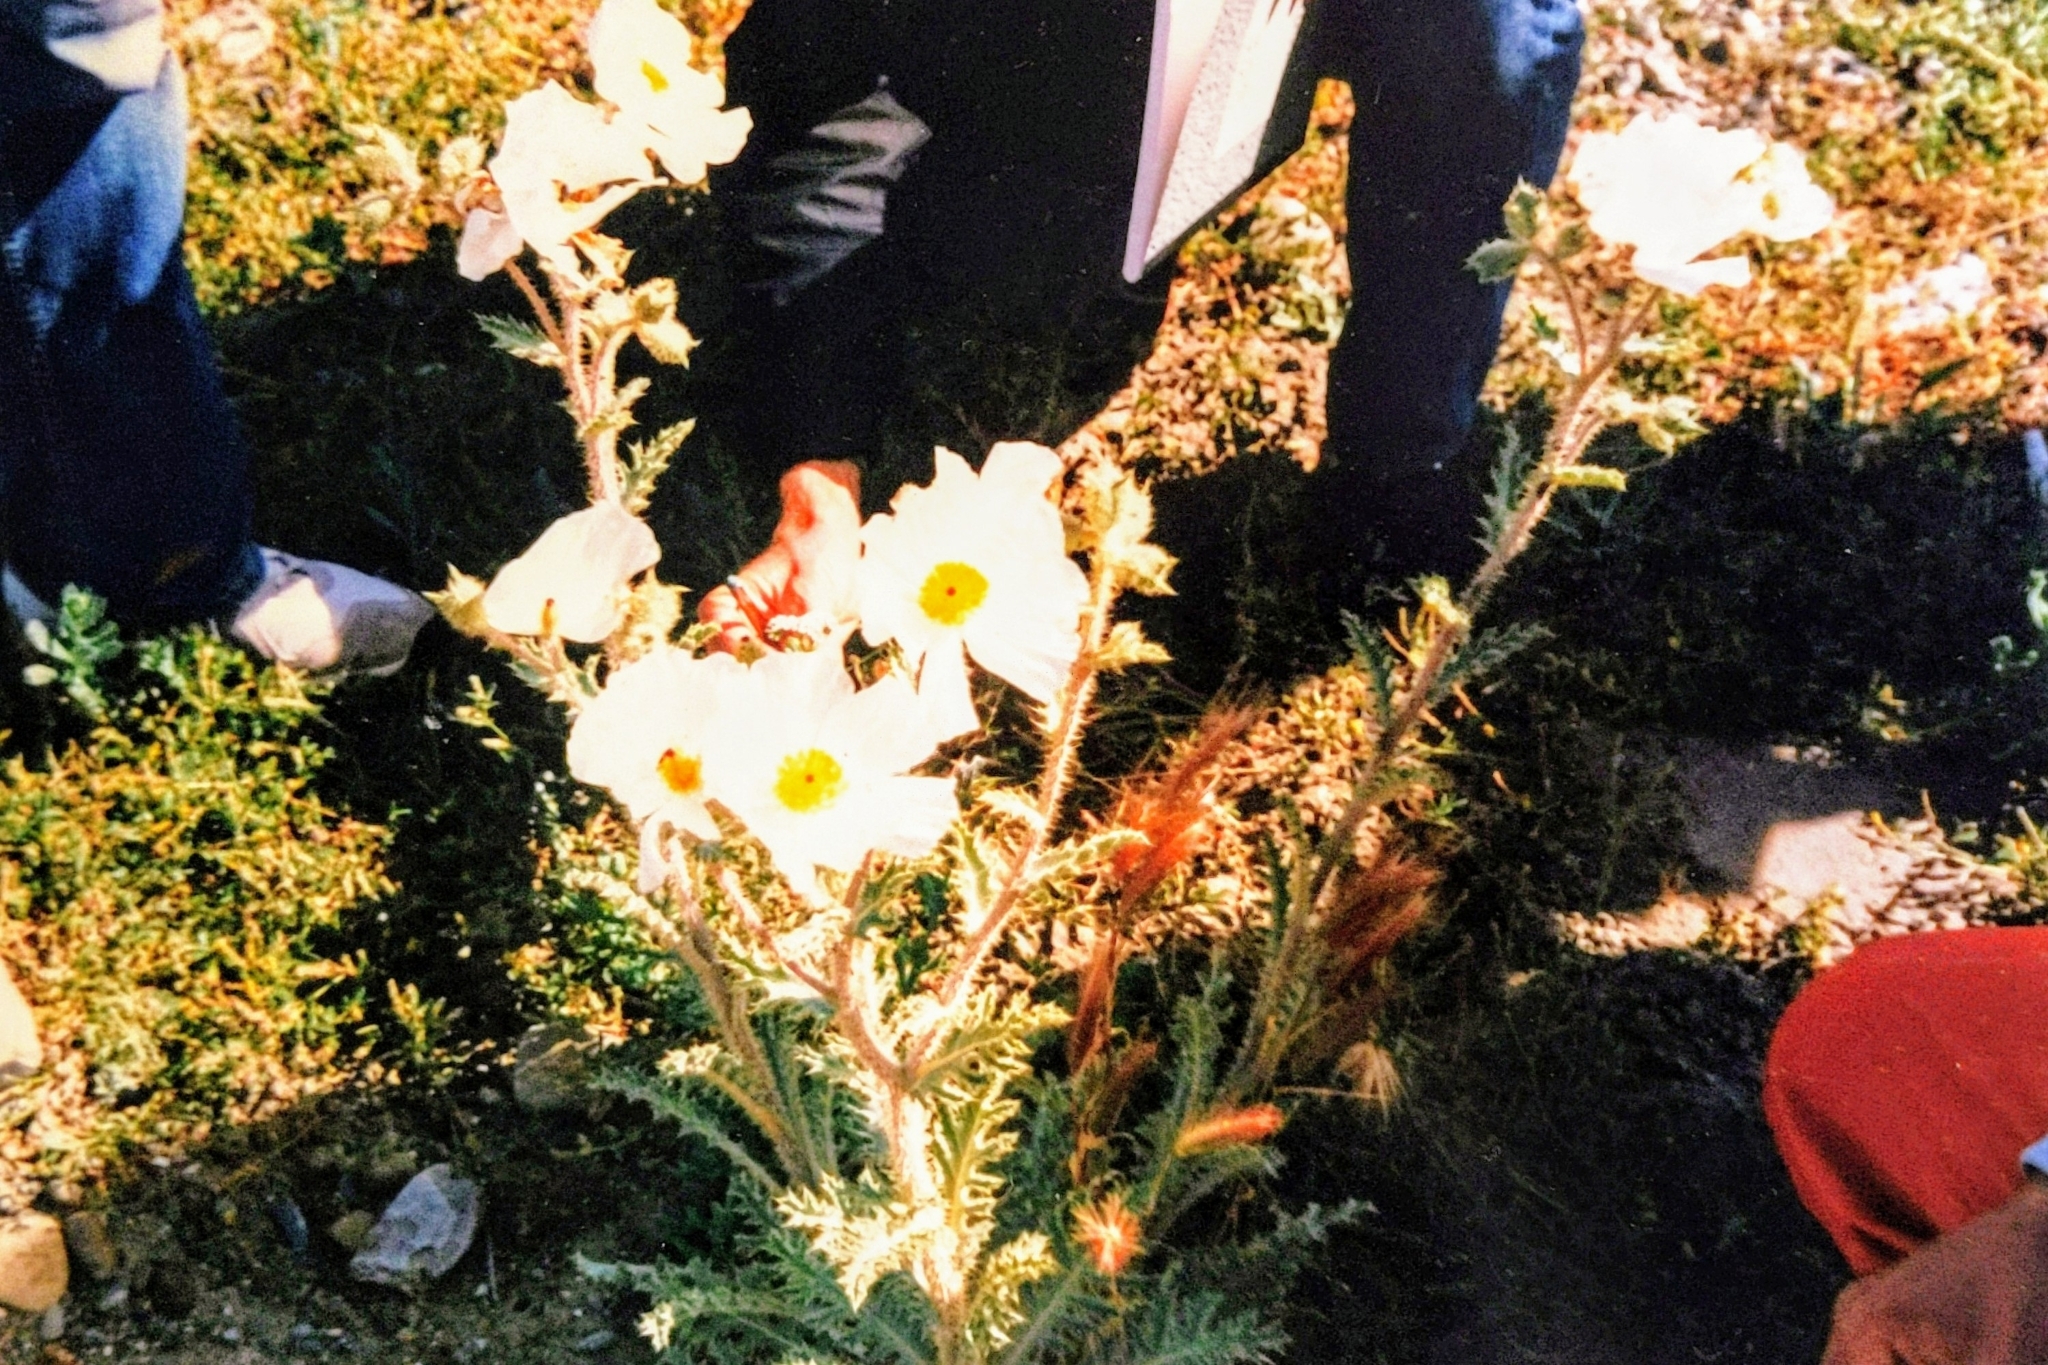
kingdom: Plantae
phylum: Tracheophyta
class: Magnoliopsida
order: Ranunculales
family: Papaveraceae
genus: Argemone
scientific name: Argemone munita
